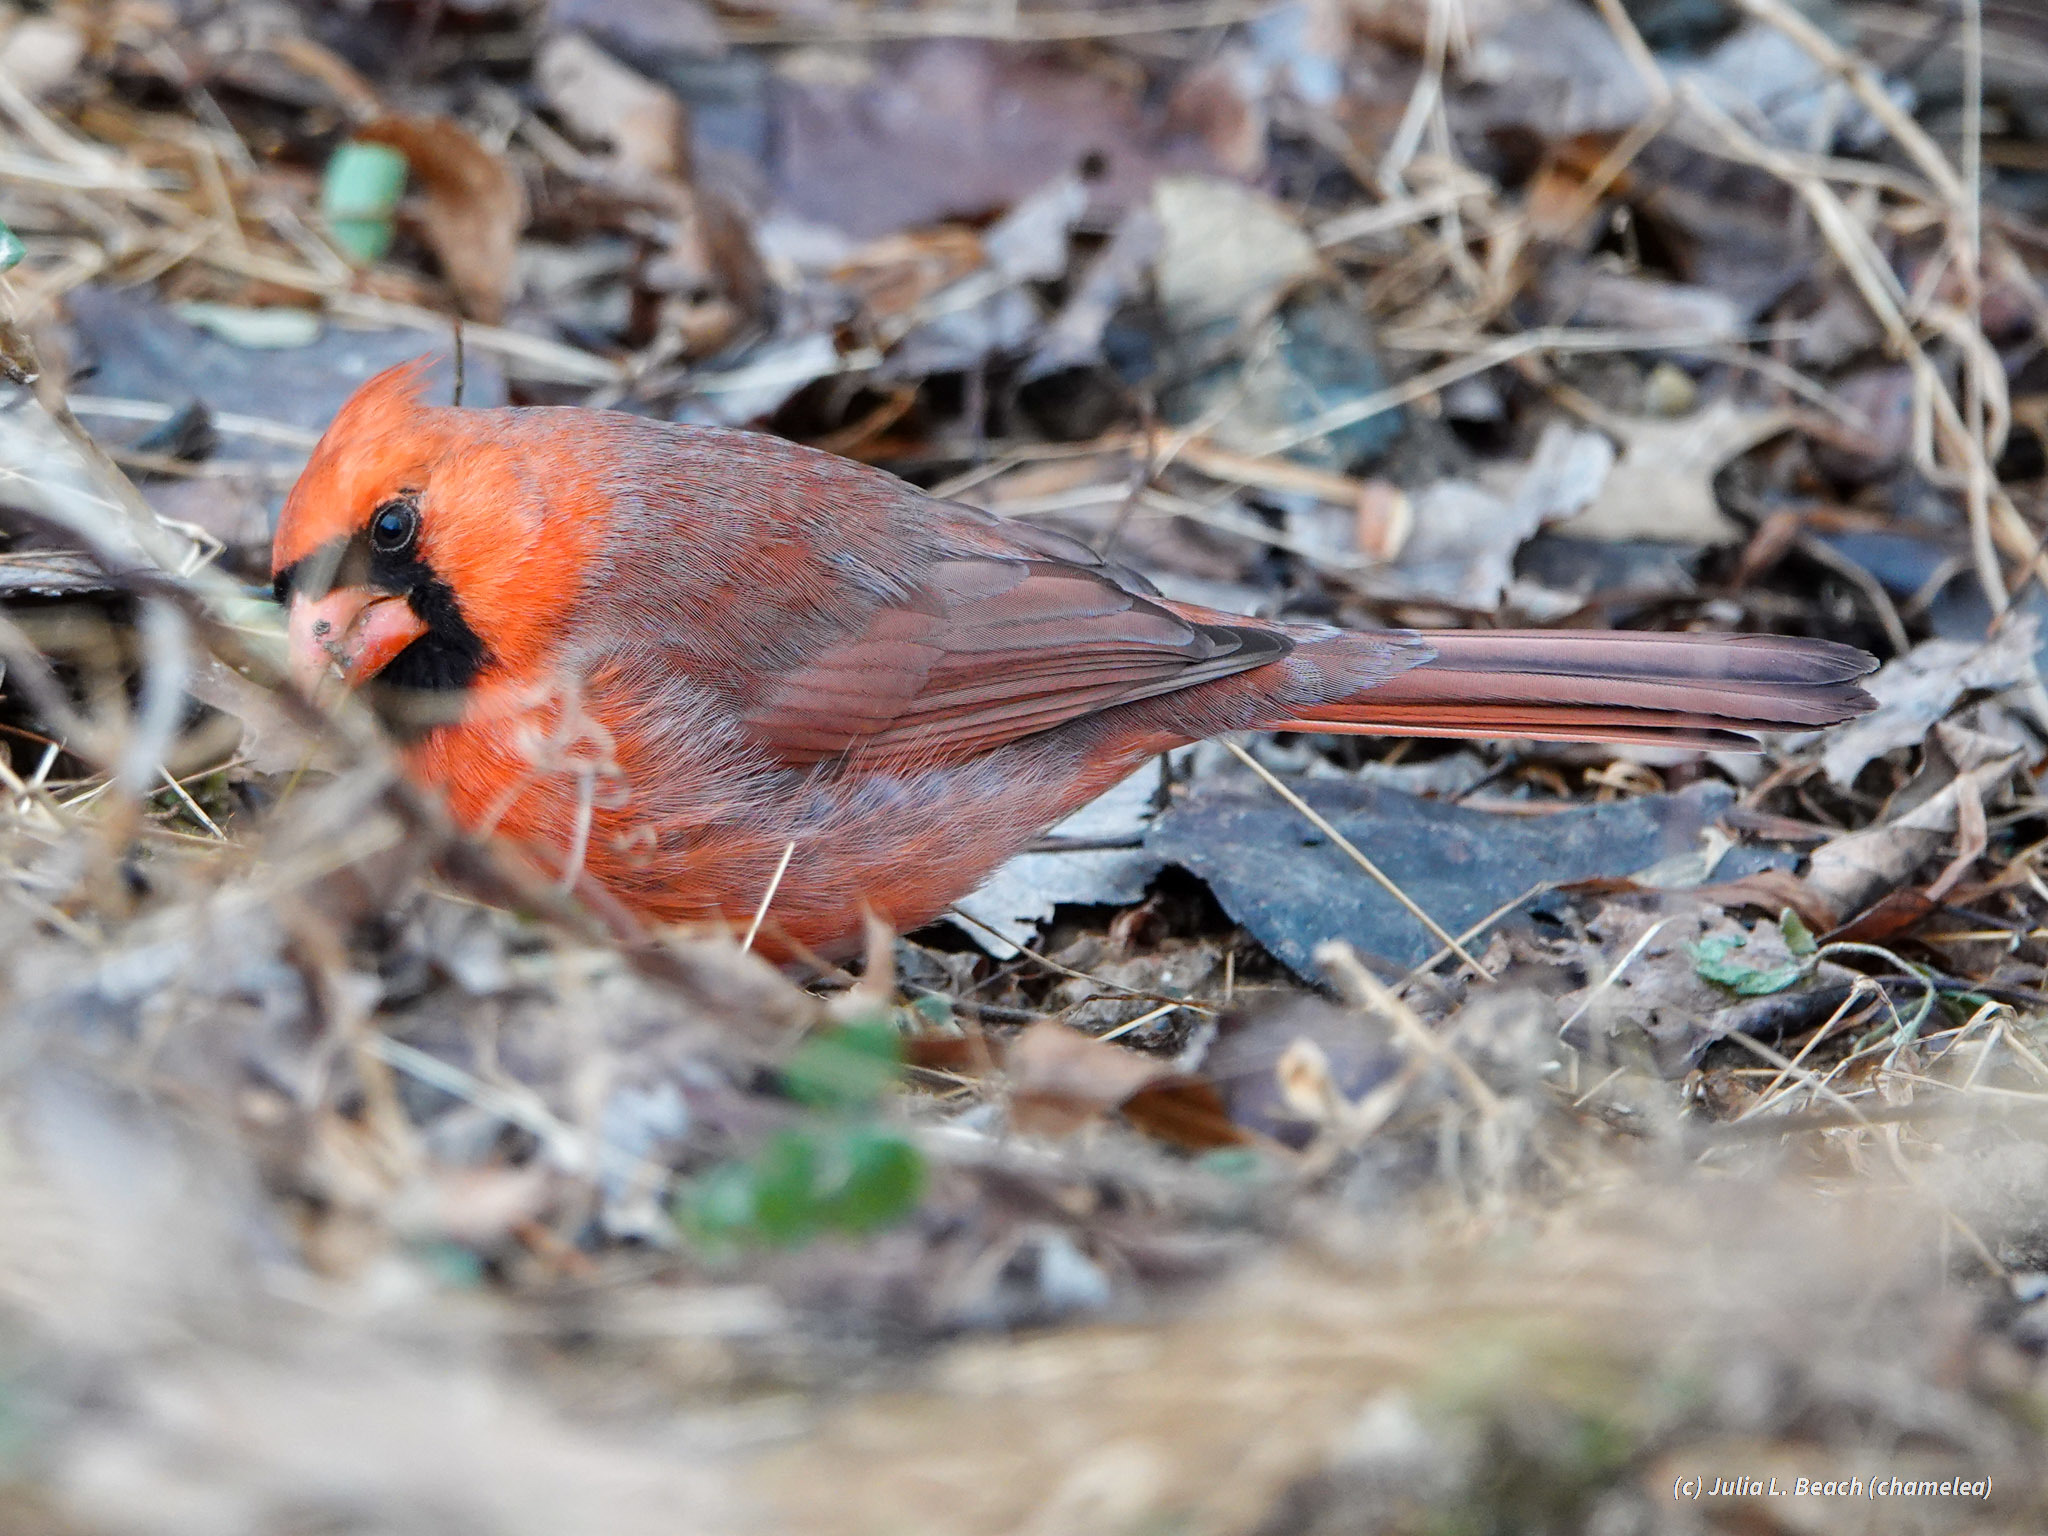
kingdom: Animalia
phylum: Chordata
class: Aves
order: Passeriformes
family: Cardinalidae
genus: Cardinalis
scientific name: Cardinalis cardinalis
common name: Northern cardinal
